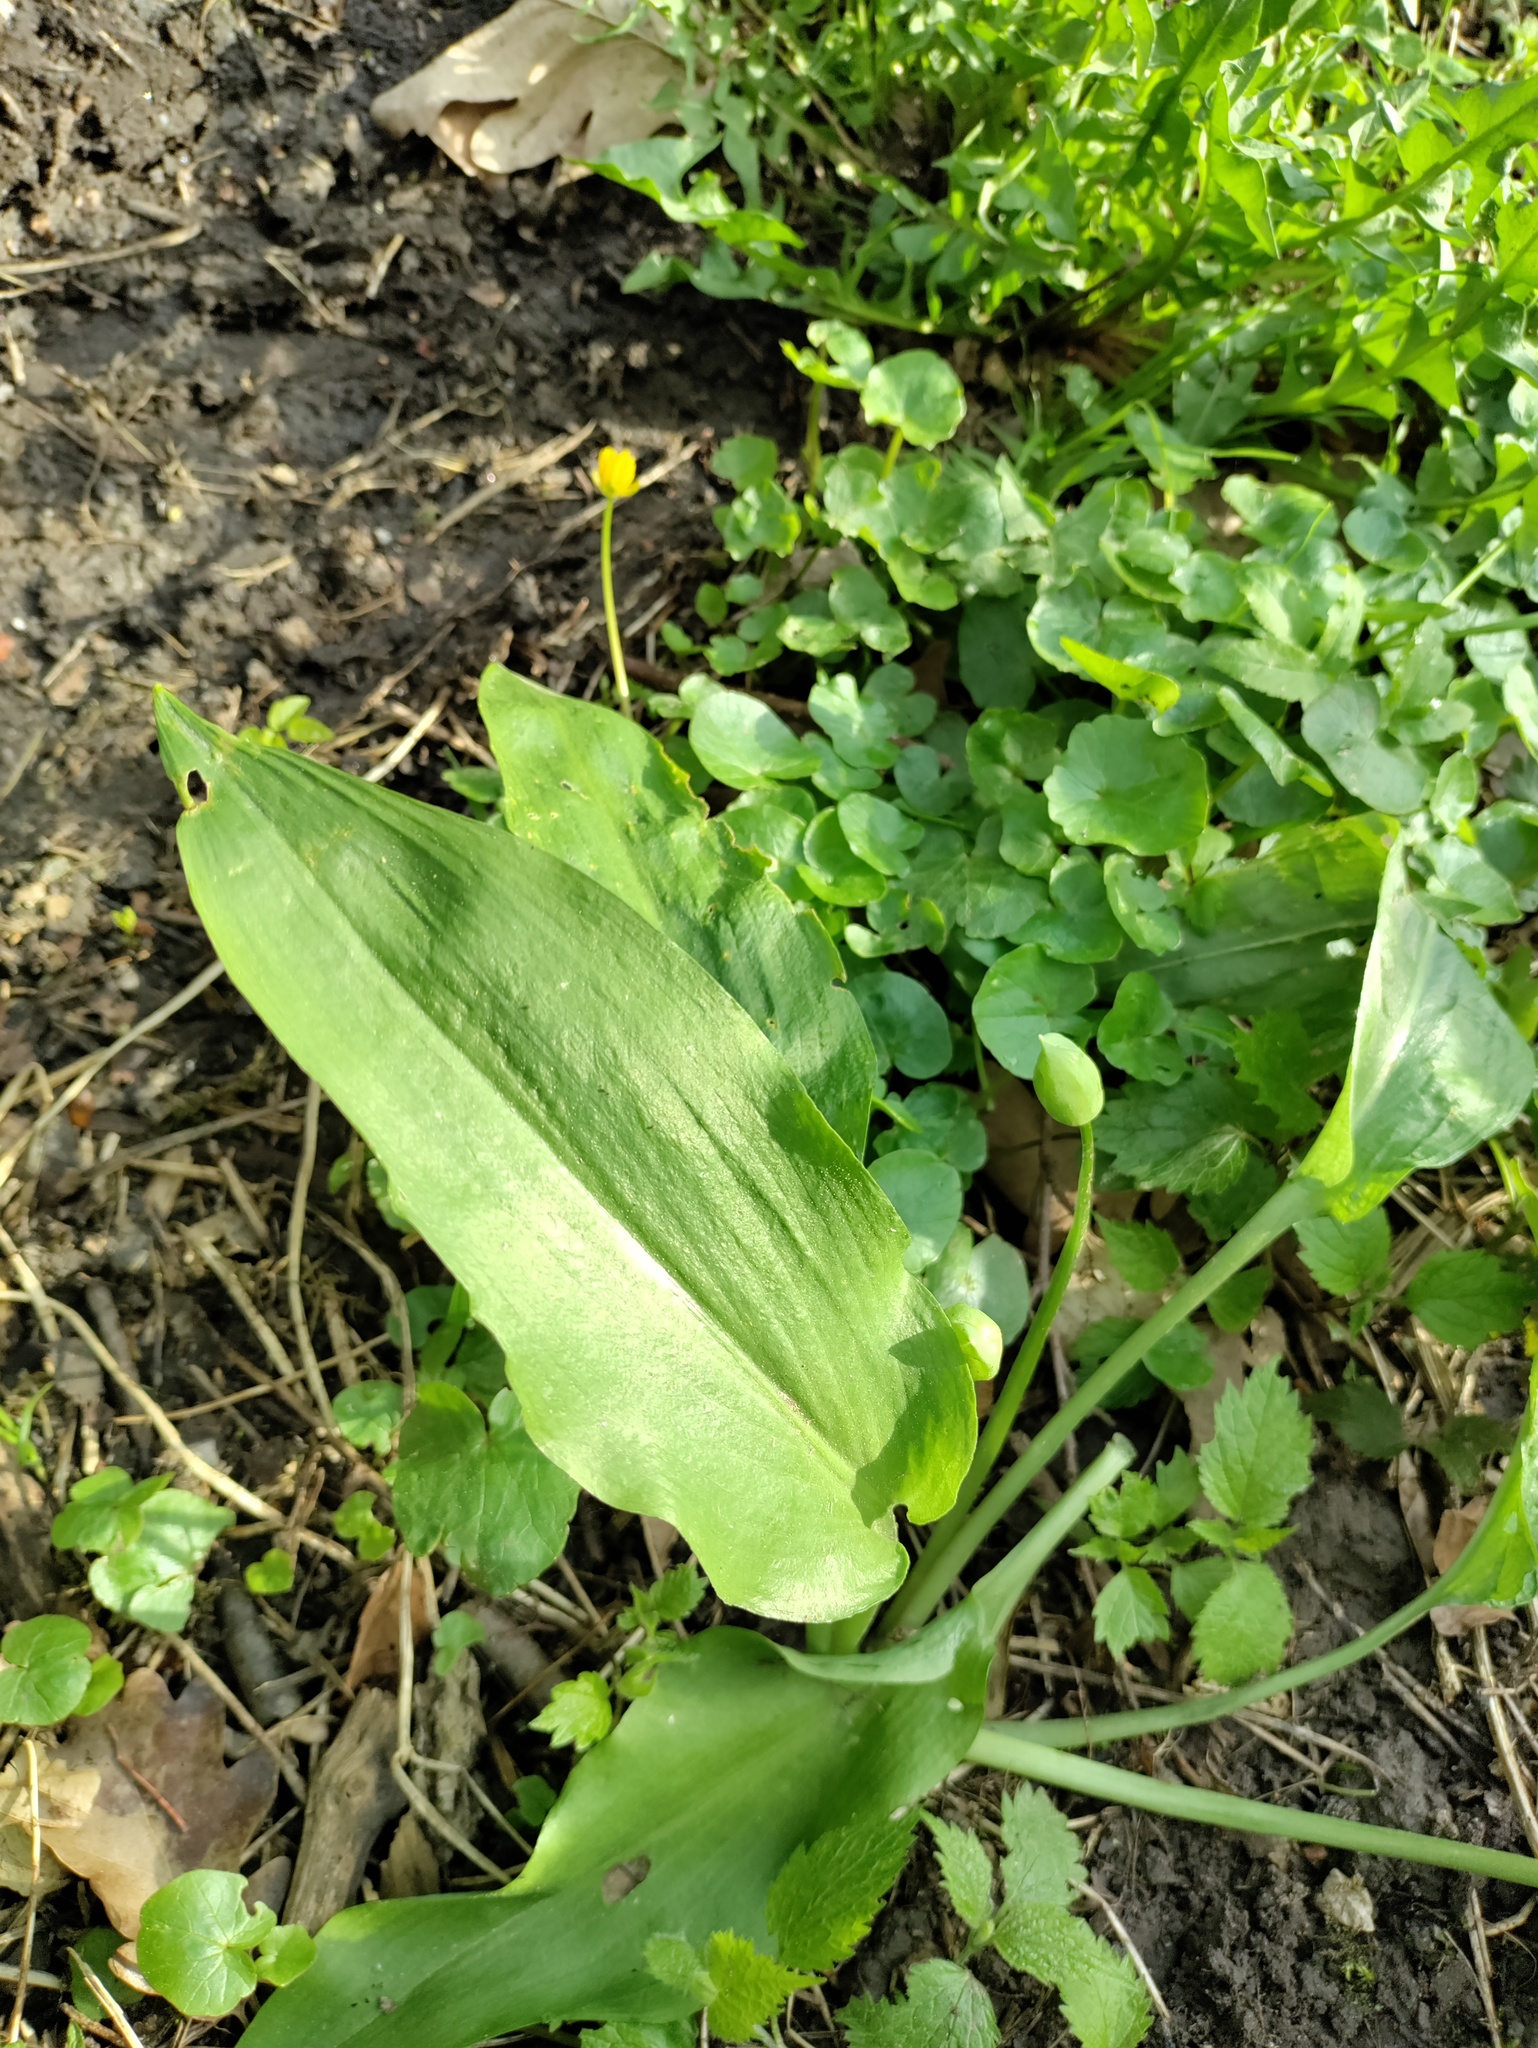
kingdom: Plantae
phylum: Tracheophyta
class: Liliopsida
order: Asparagales
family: Amaryllidaceae
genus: Allium
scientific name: Allium ursinum
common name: Ramsons
